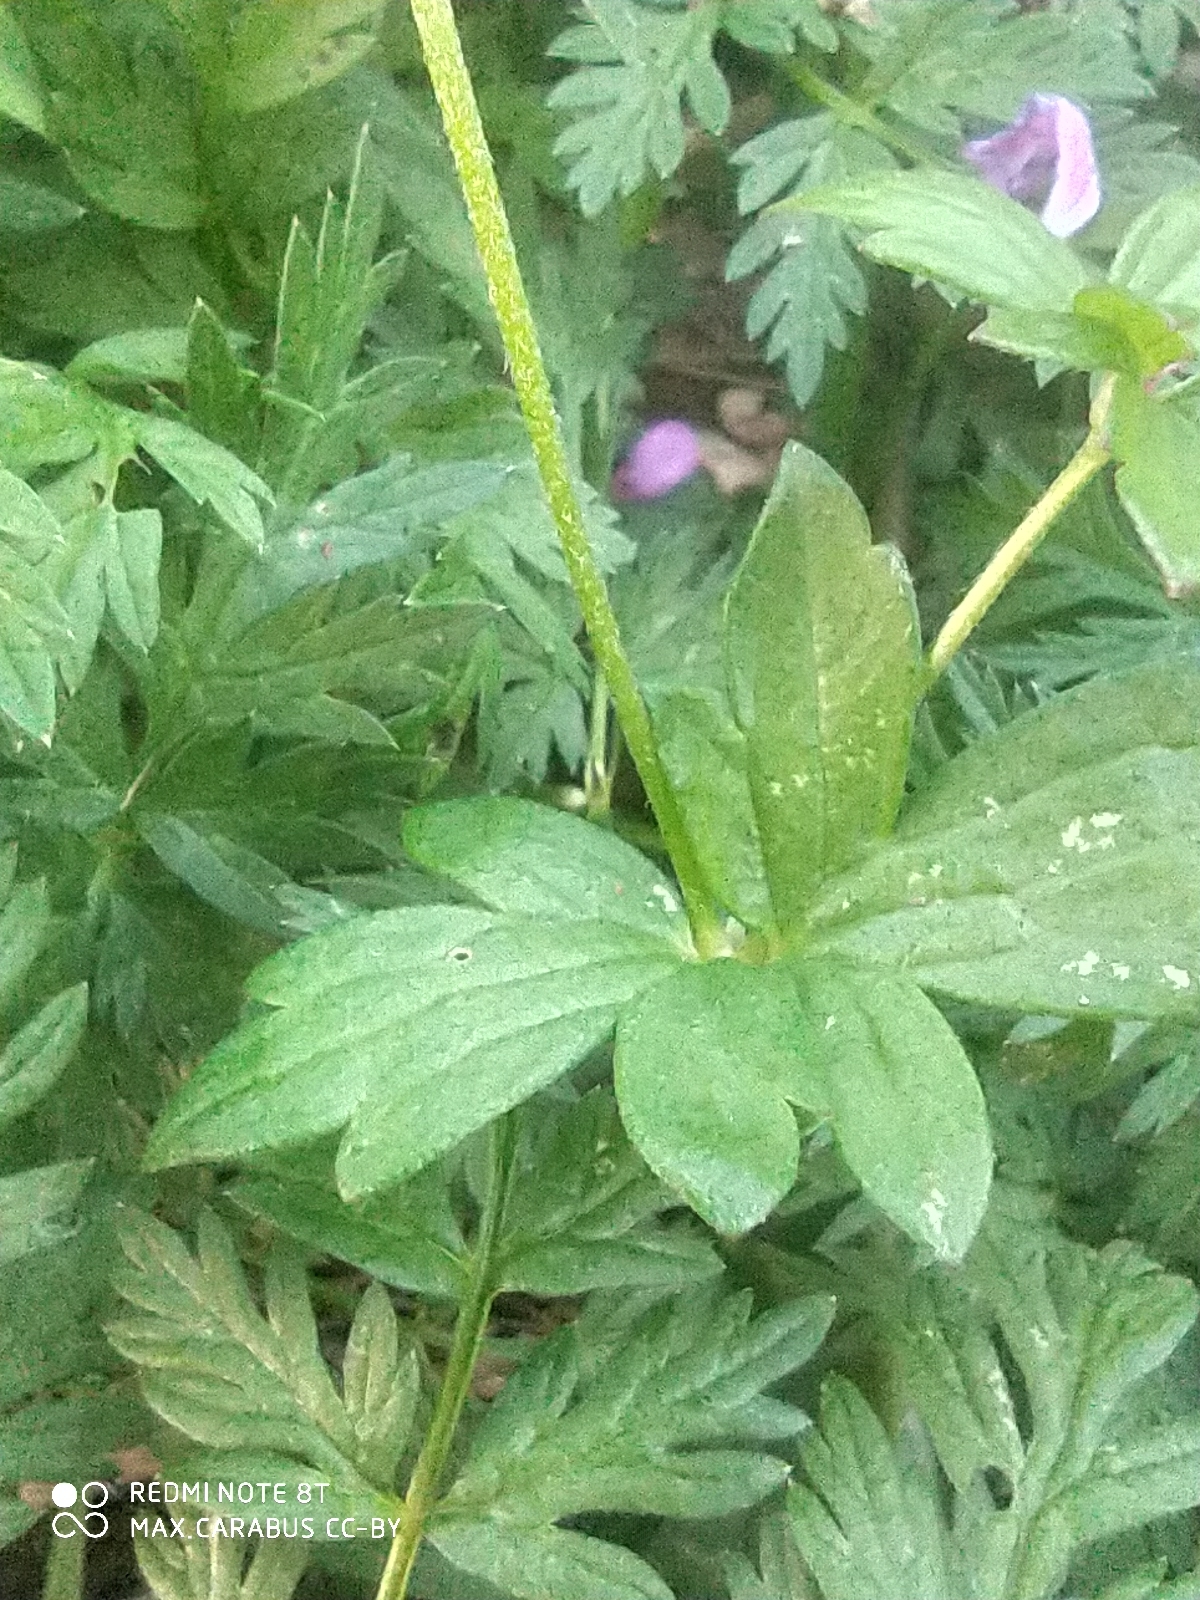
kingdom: Plantae
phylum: Tracheophyta
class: Magnoliopsida
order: Geraniales
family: Geraniaceae
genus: Geranium
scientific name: Geranium palustre
